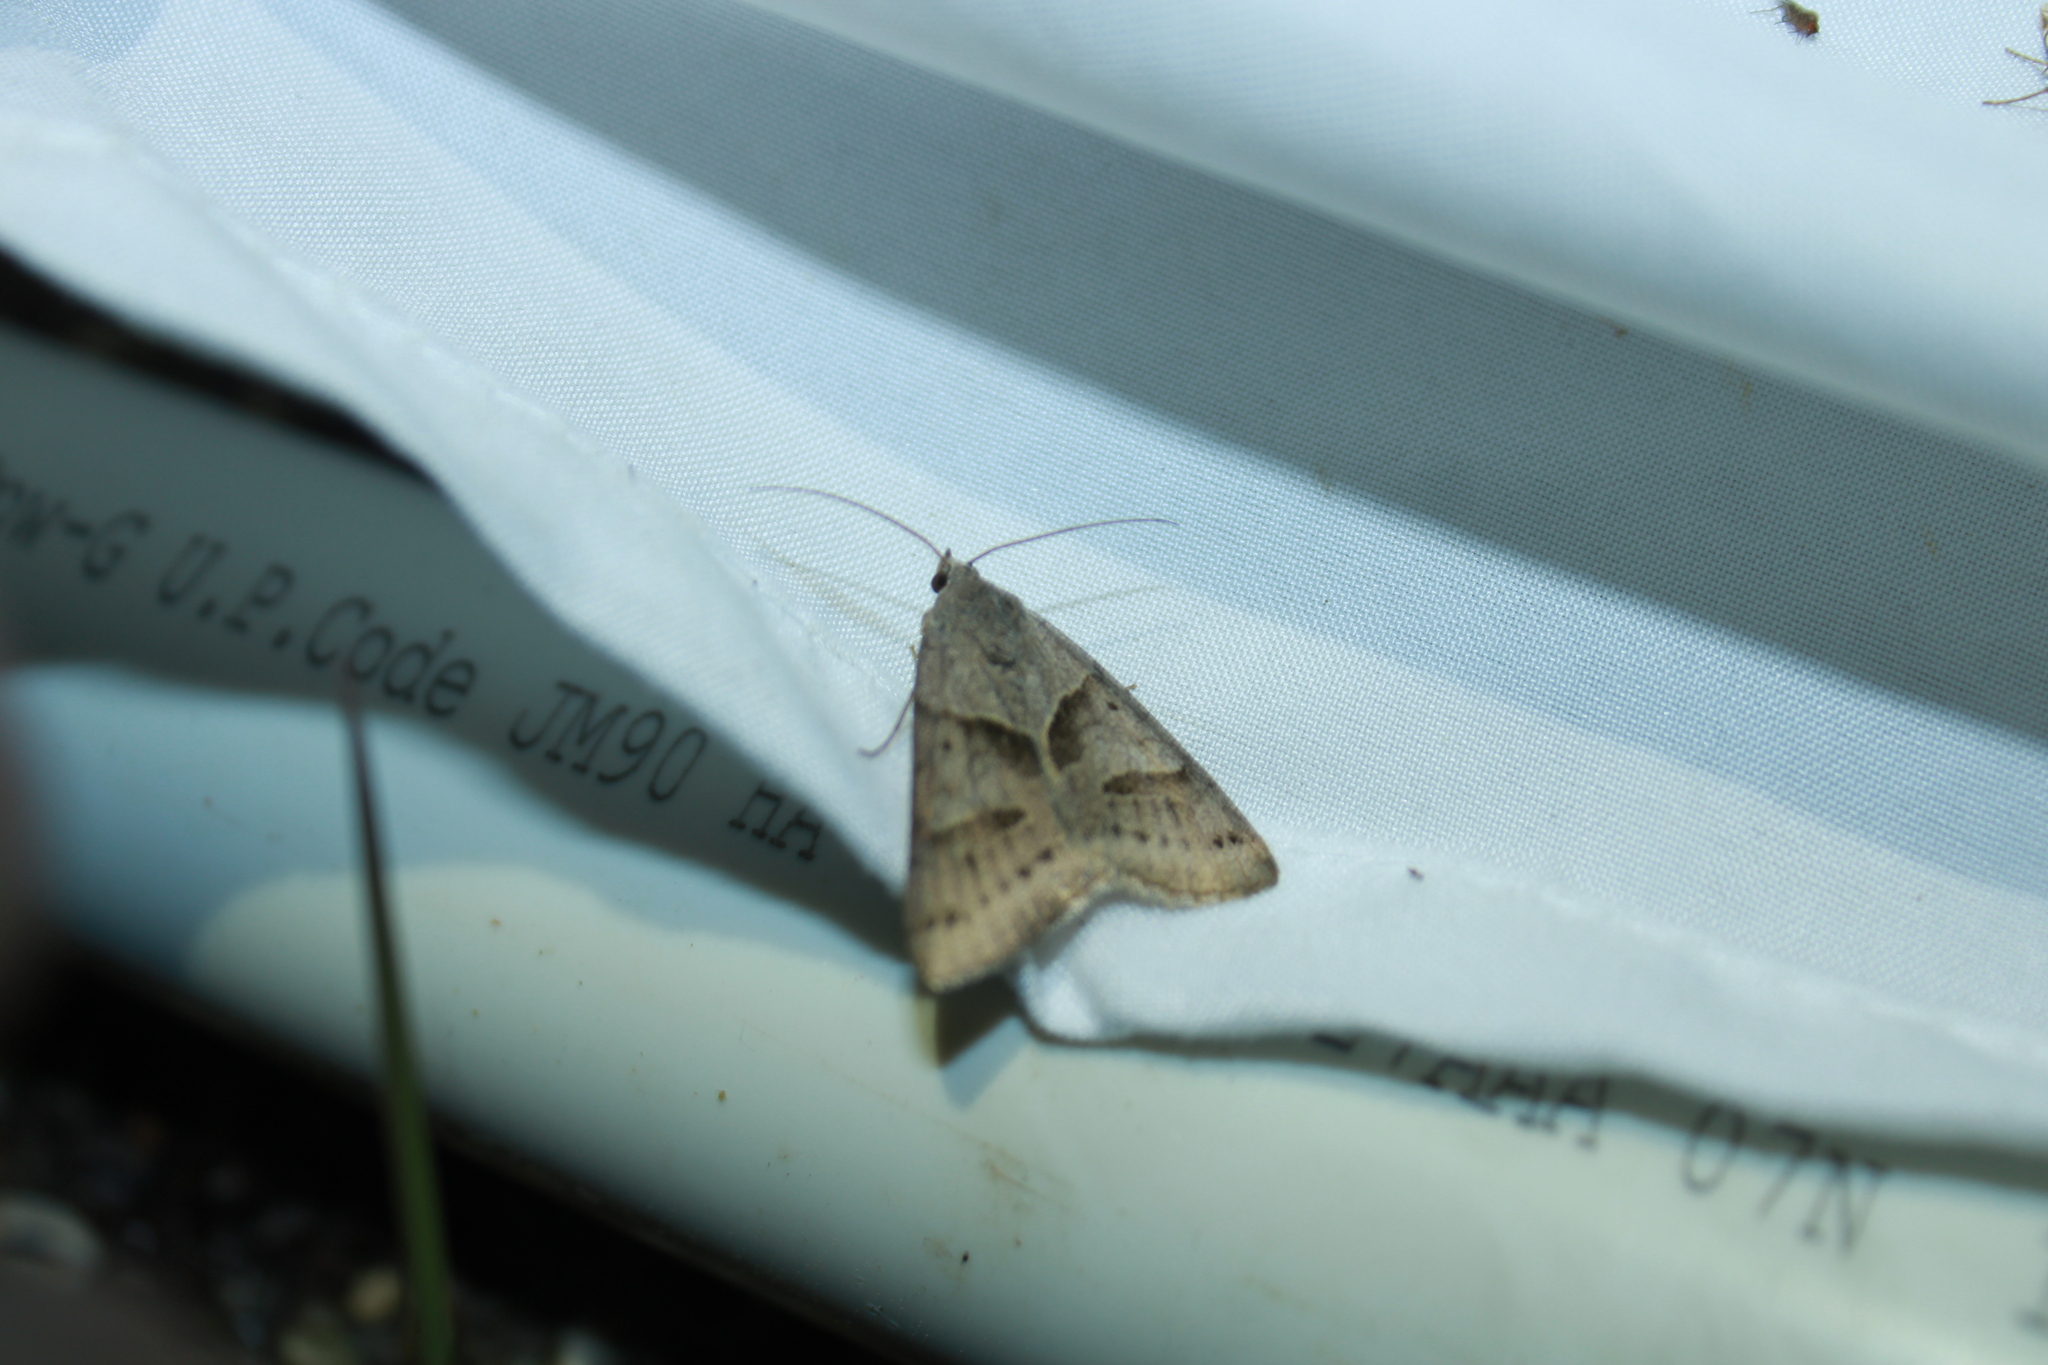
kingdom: Animalia
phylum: Arthropoda
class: Insecta
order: Lepidoptera
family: Erebidae
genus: Caenurgina
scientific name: Caenurgina erechtea
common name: Forage looper moth
